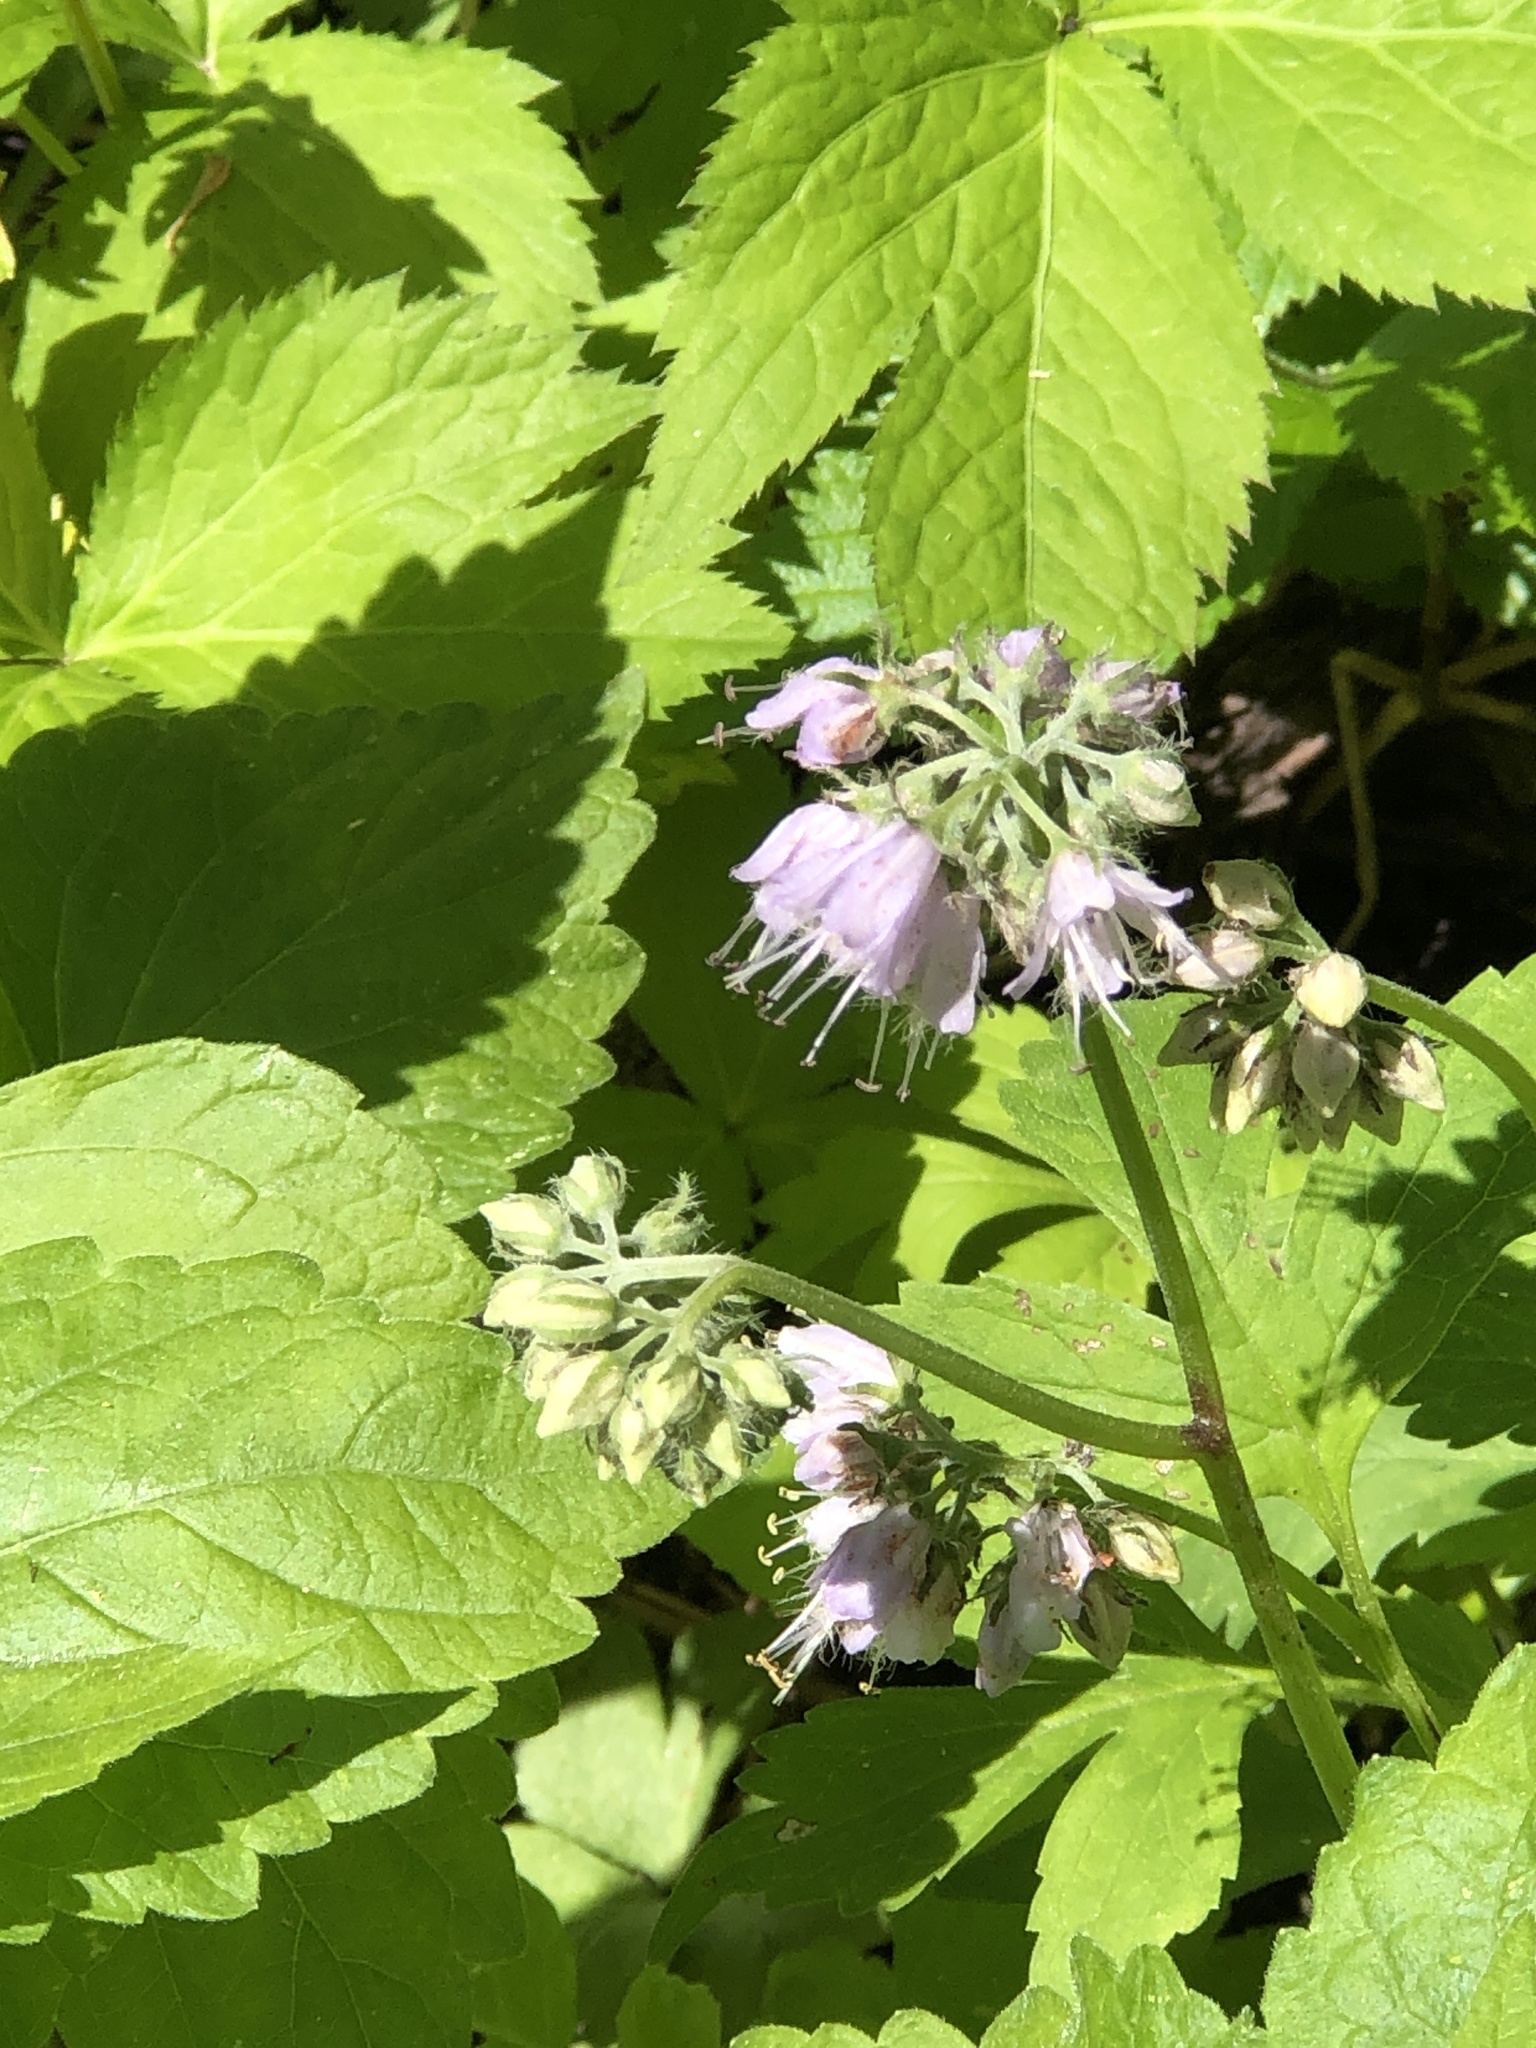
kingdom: Plantae
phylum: Tracheophyta
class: Magnoliopsida
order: Boraginales
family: Hydrophyllaceae
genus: Hydrophyllum
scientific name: Hydrophyllum virginianum
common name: Virginia waterleaf
